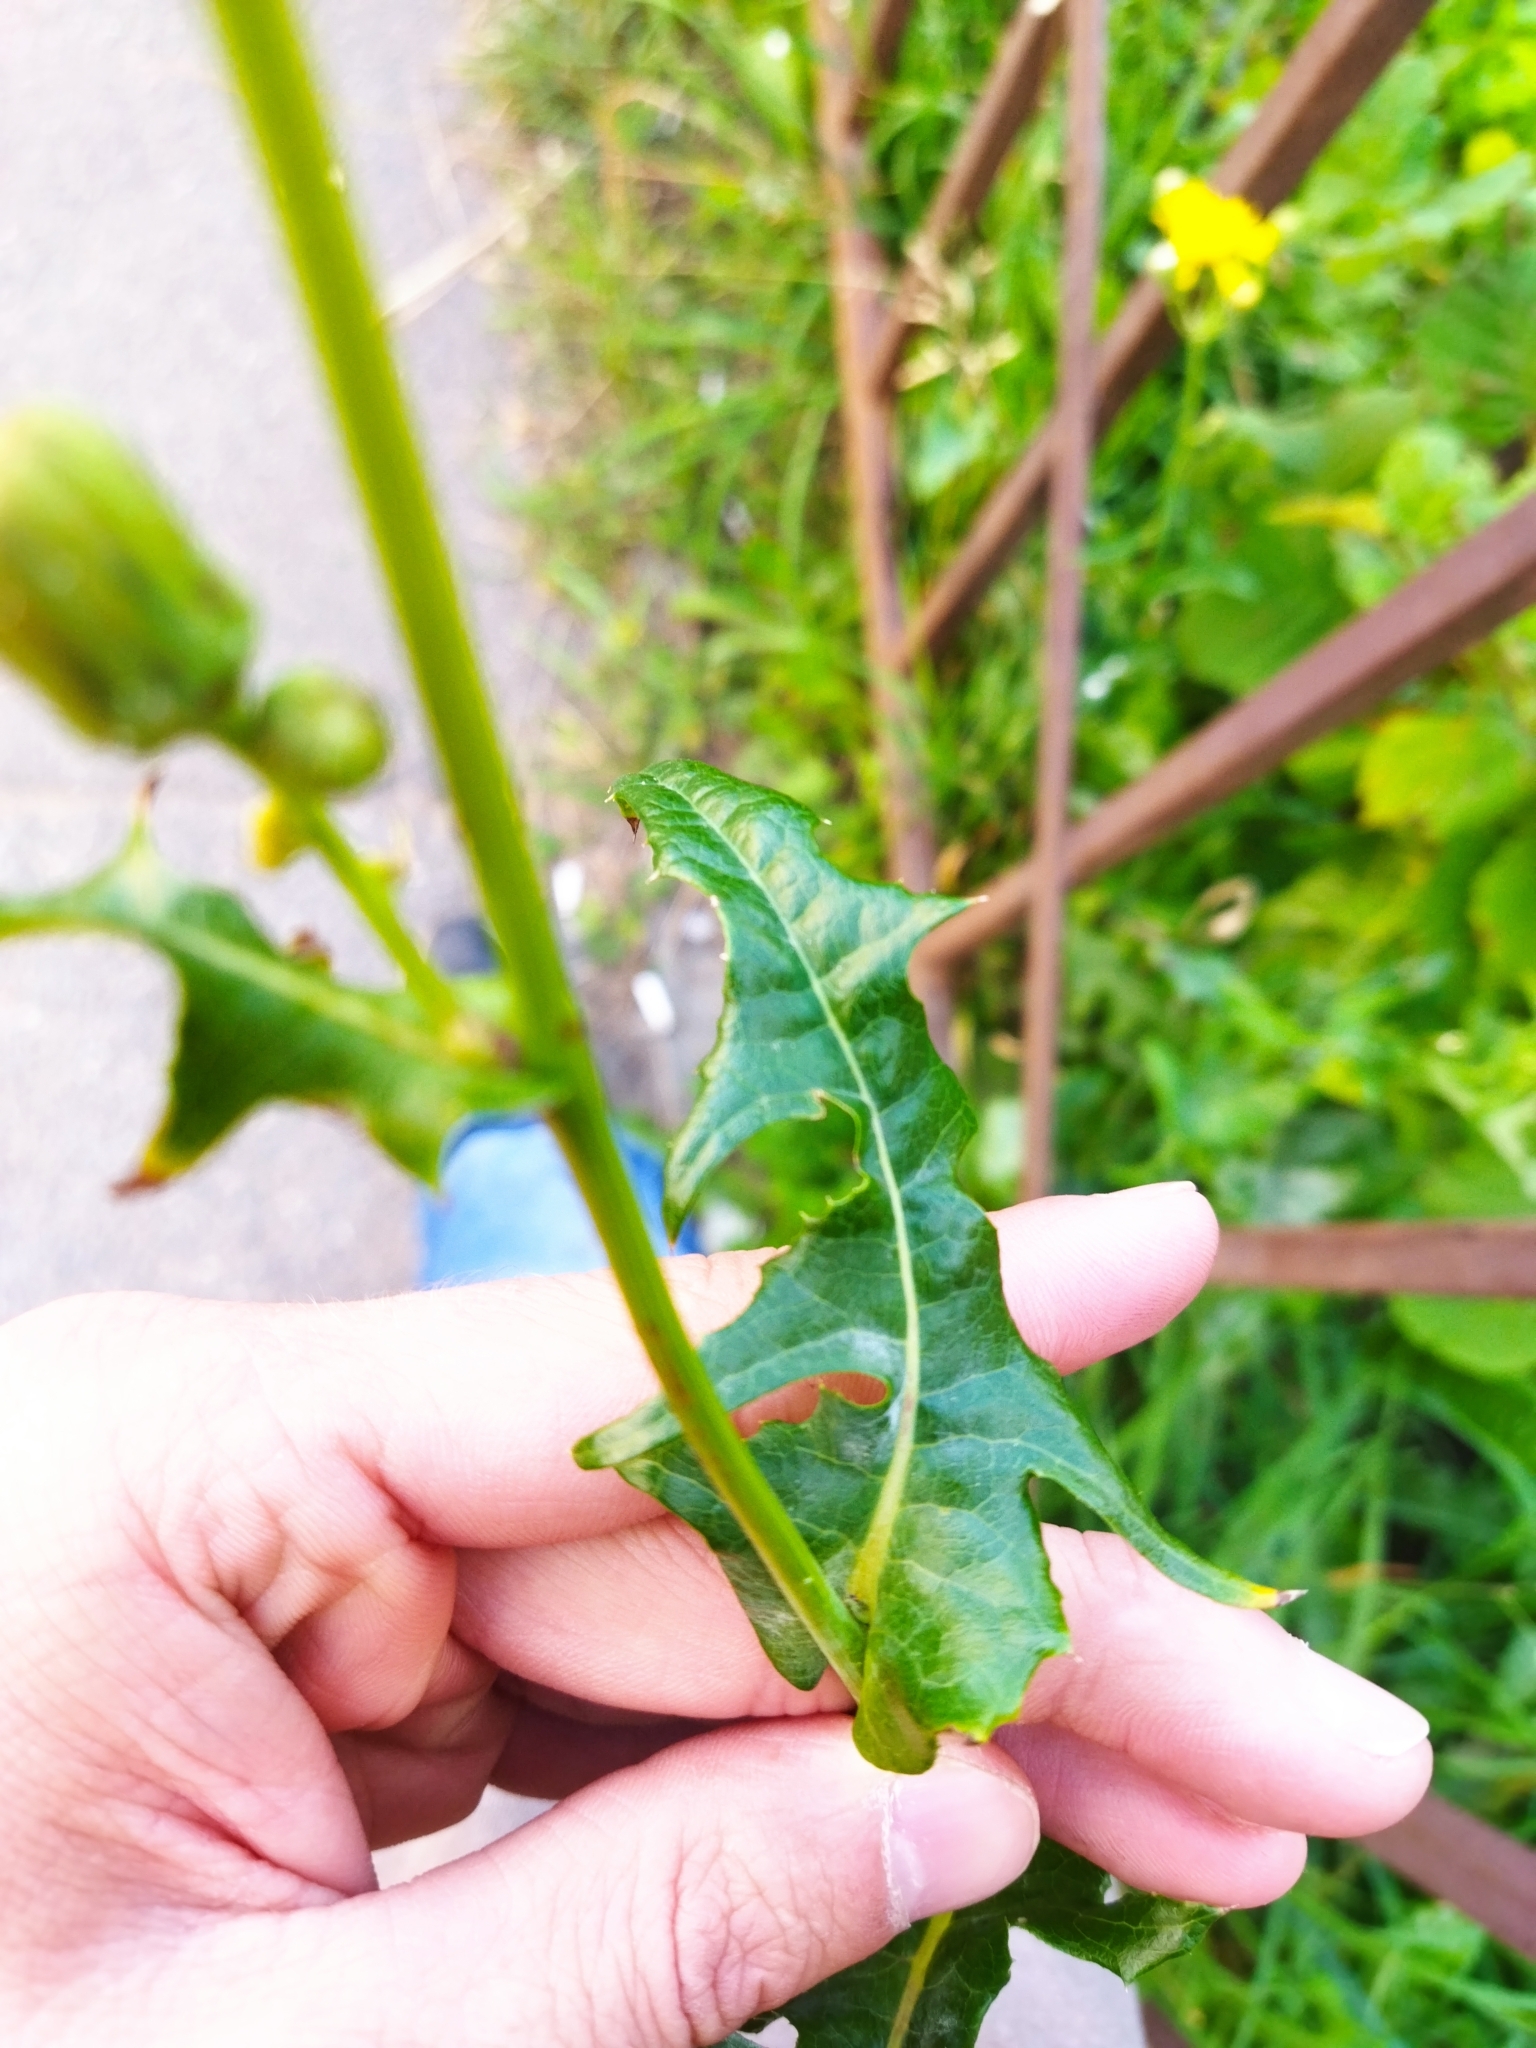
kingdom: Plantae
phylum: Tracheophyta
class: Magnoliopsida
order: Asterales
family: Asteraceae
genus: Sonchus
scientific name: Sonchus arvensis
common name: Perennial sow-thistle
